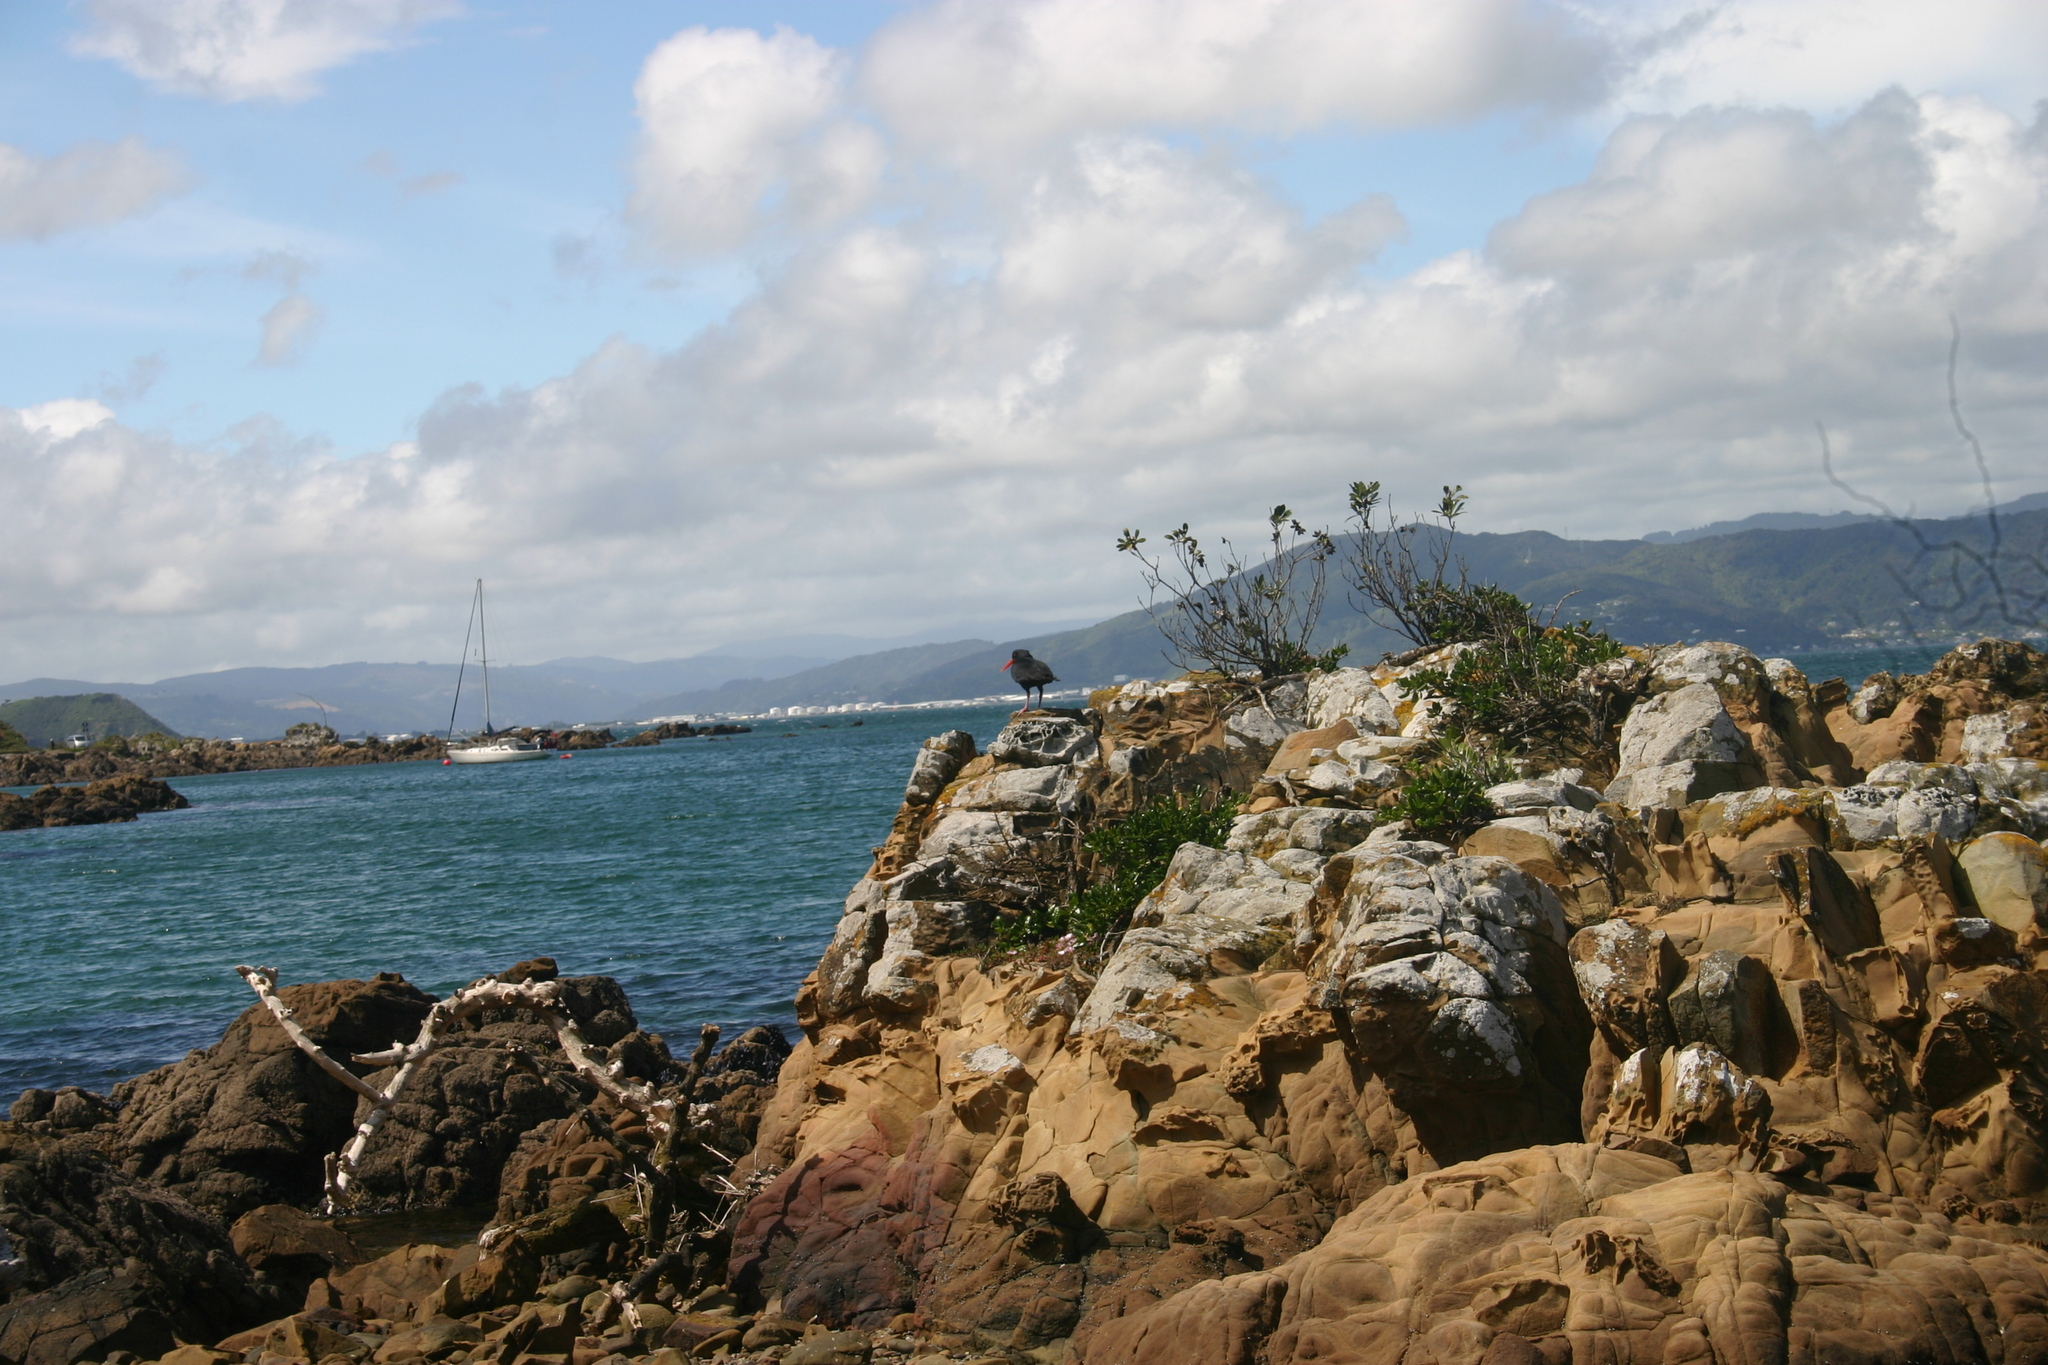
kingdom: Animalia
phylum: Chordata
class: Aves
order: Charadriiformes
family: Haematopodidae
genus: Haematopus
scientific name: Haematopus unicolor
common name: Variable oystercatcher
